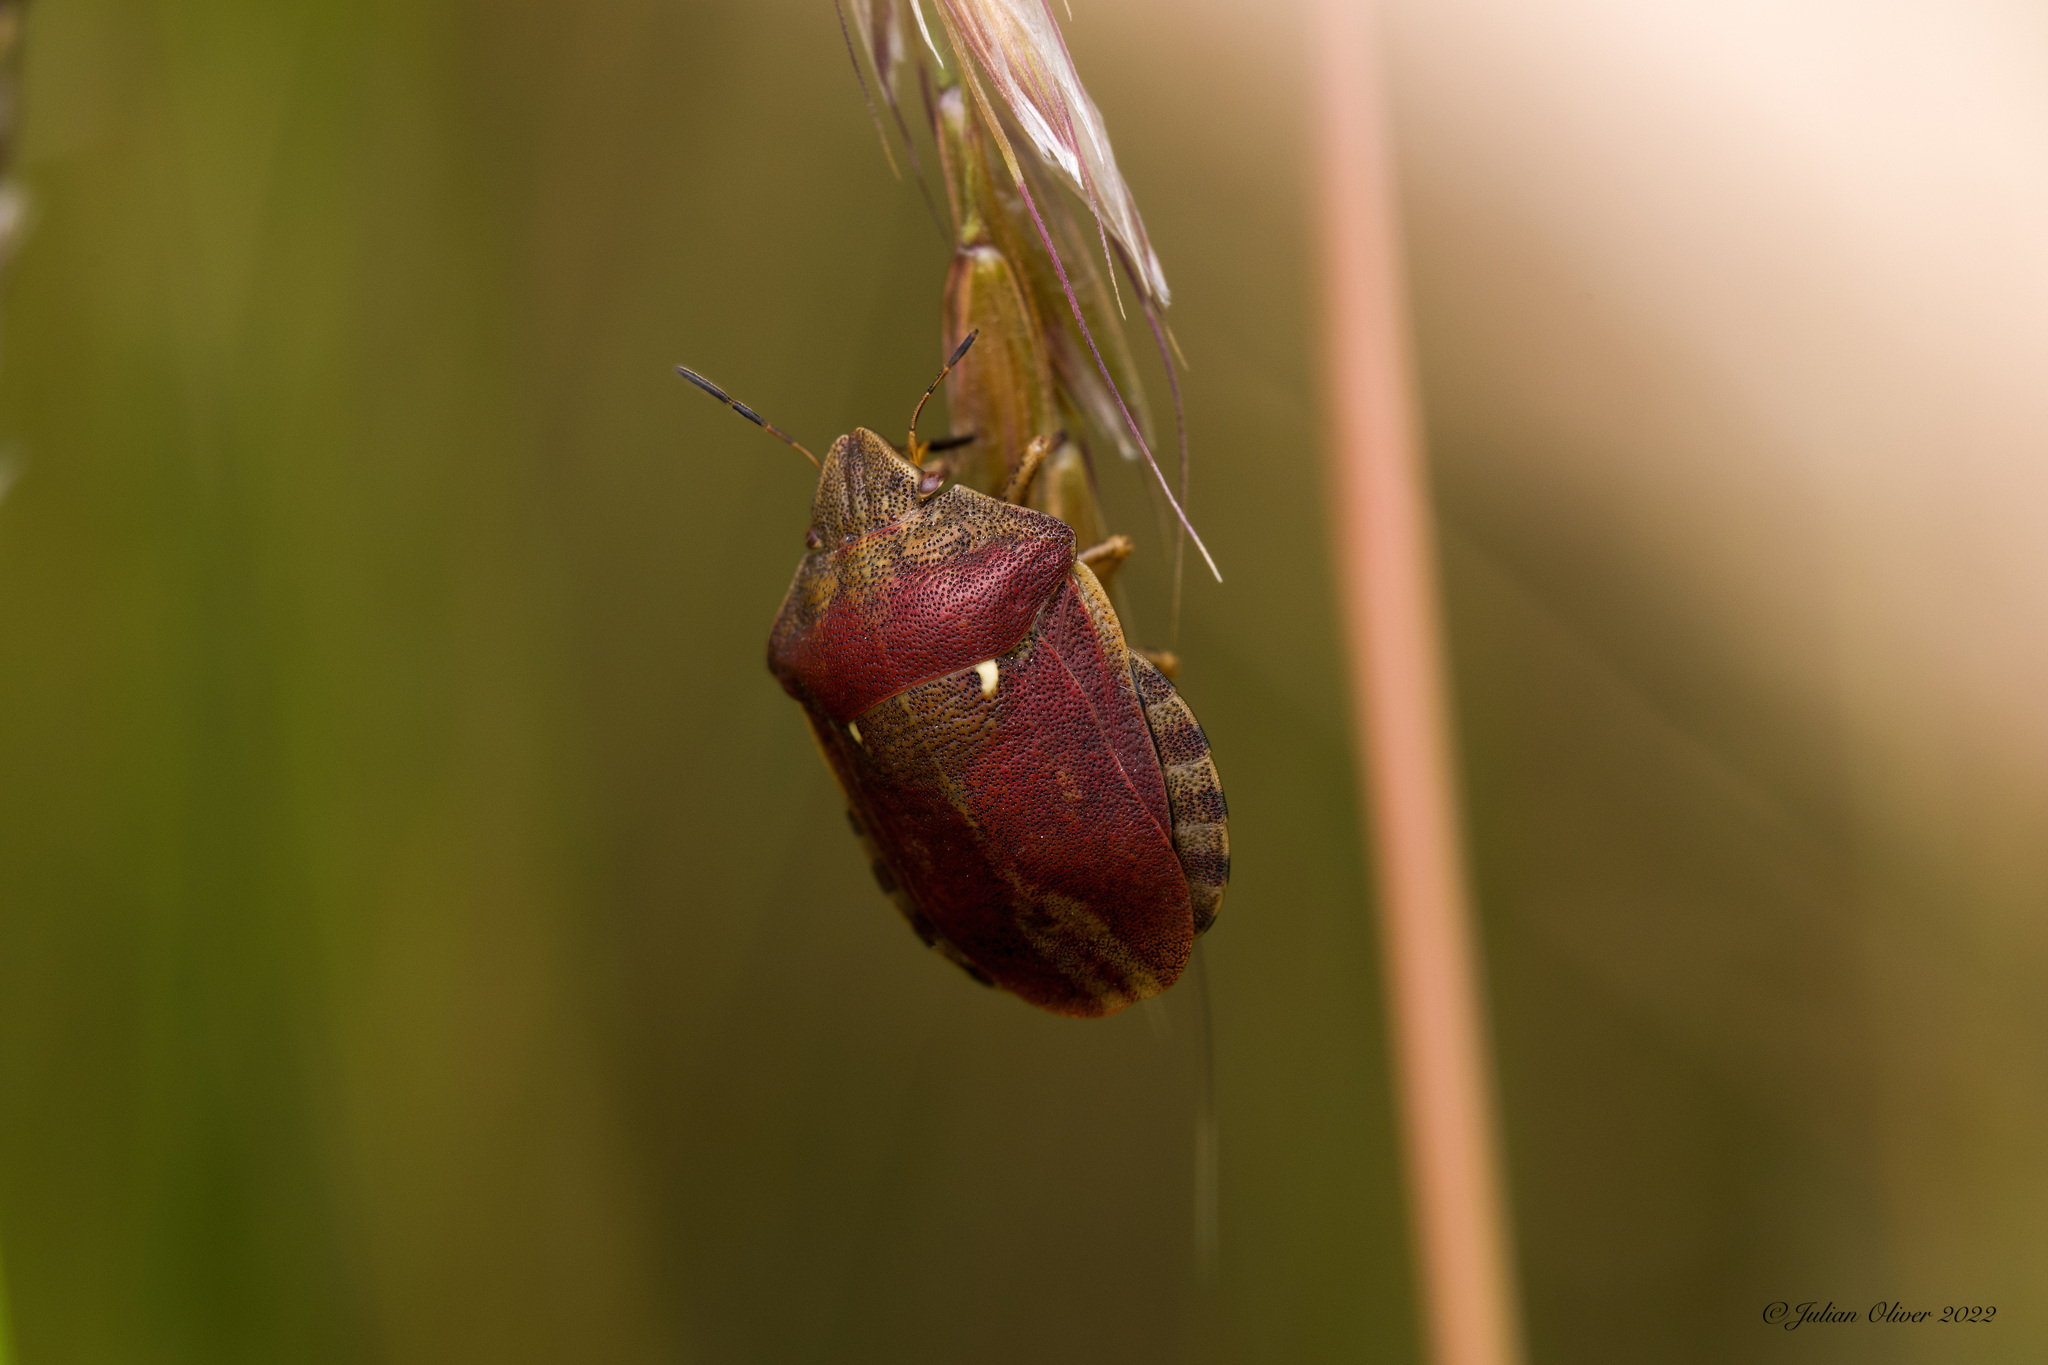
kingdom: Animalia
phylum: Arthropoda
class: Insecta
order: Hemiptera
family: Scutelleridae
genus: Eurygaster
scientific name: Eurygaster testudinaria
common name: Tortoise bug
